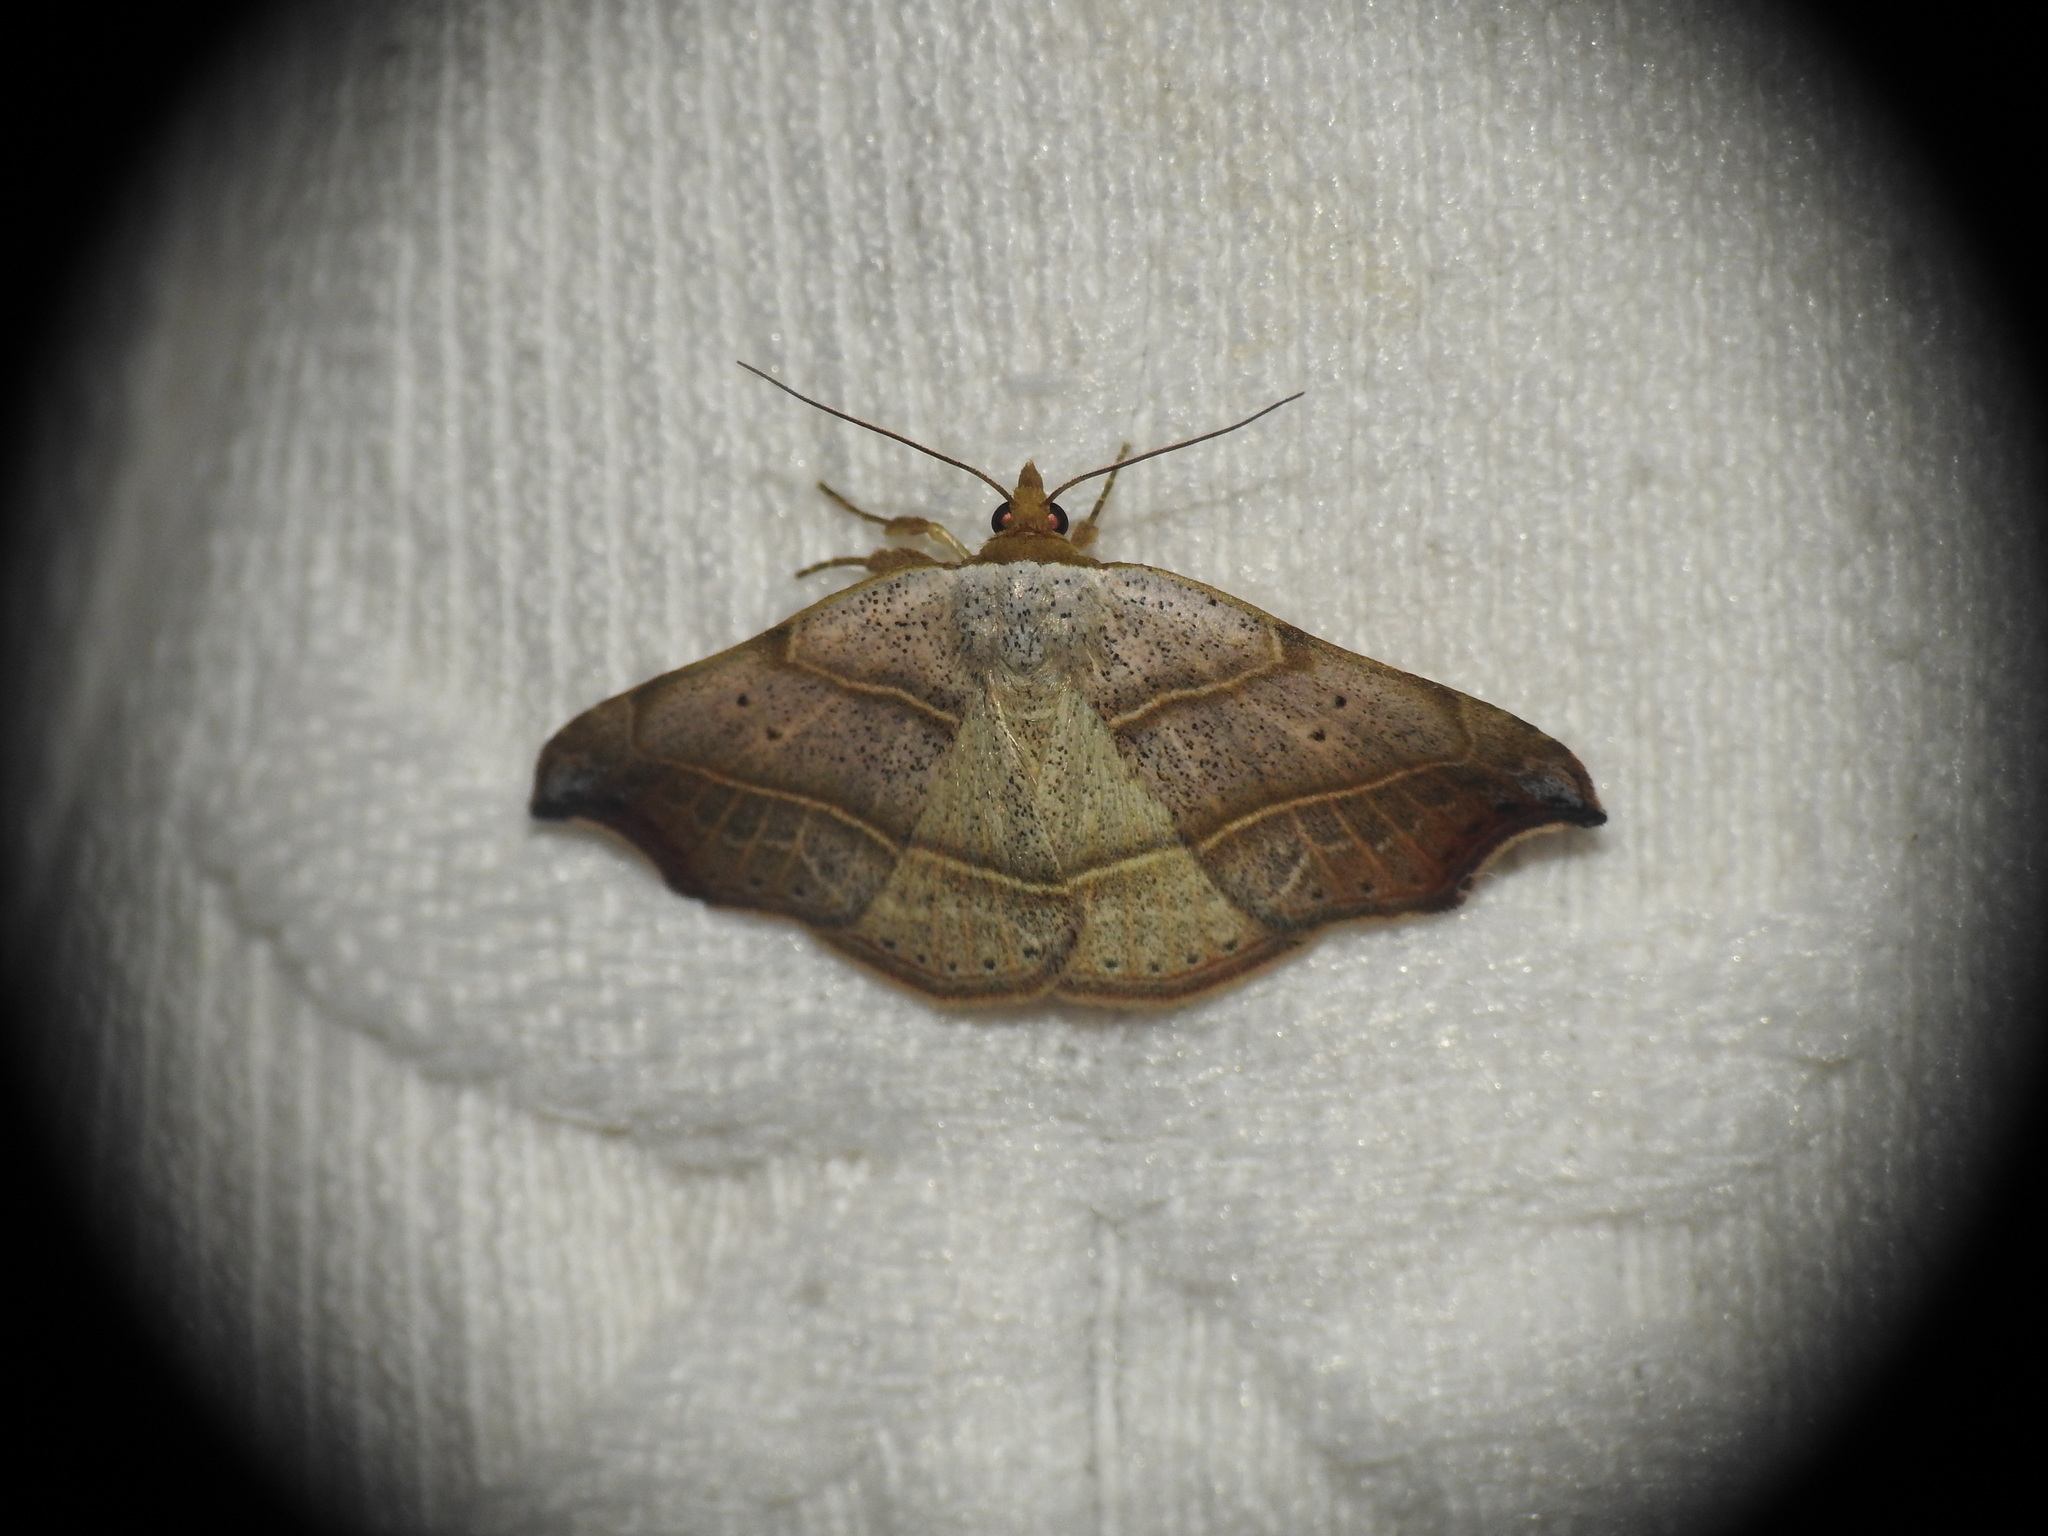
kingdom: Animalia
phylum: Arthropoda
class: Insecta
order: Lepidoptera
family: Erebidae
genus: Laspeyria
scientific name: Laspeyria flexula
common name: Beautiful hook-tip
